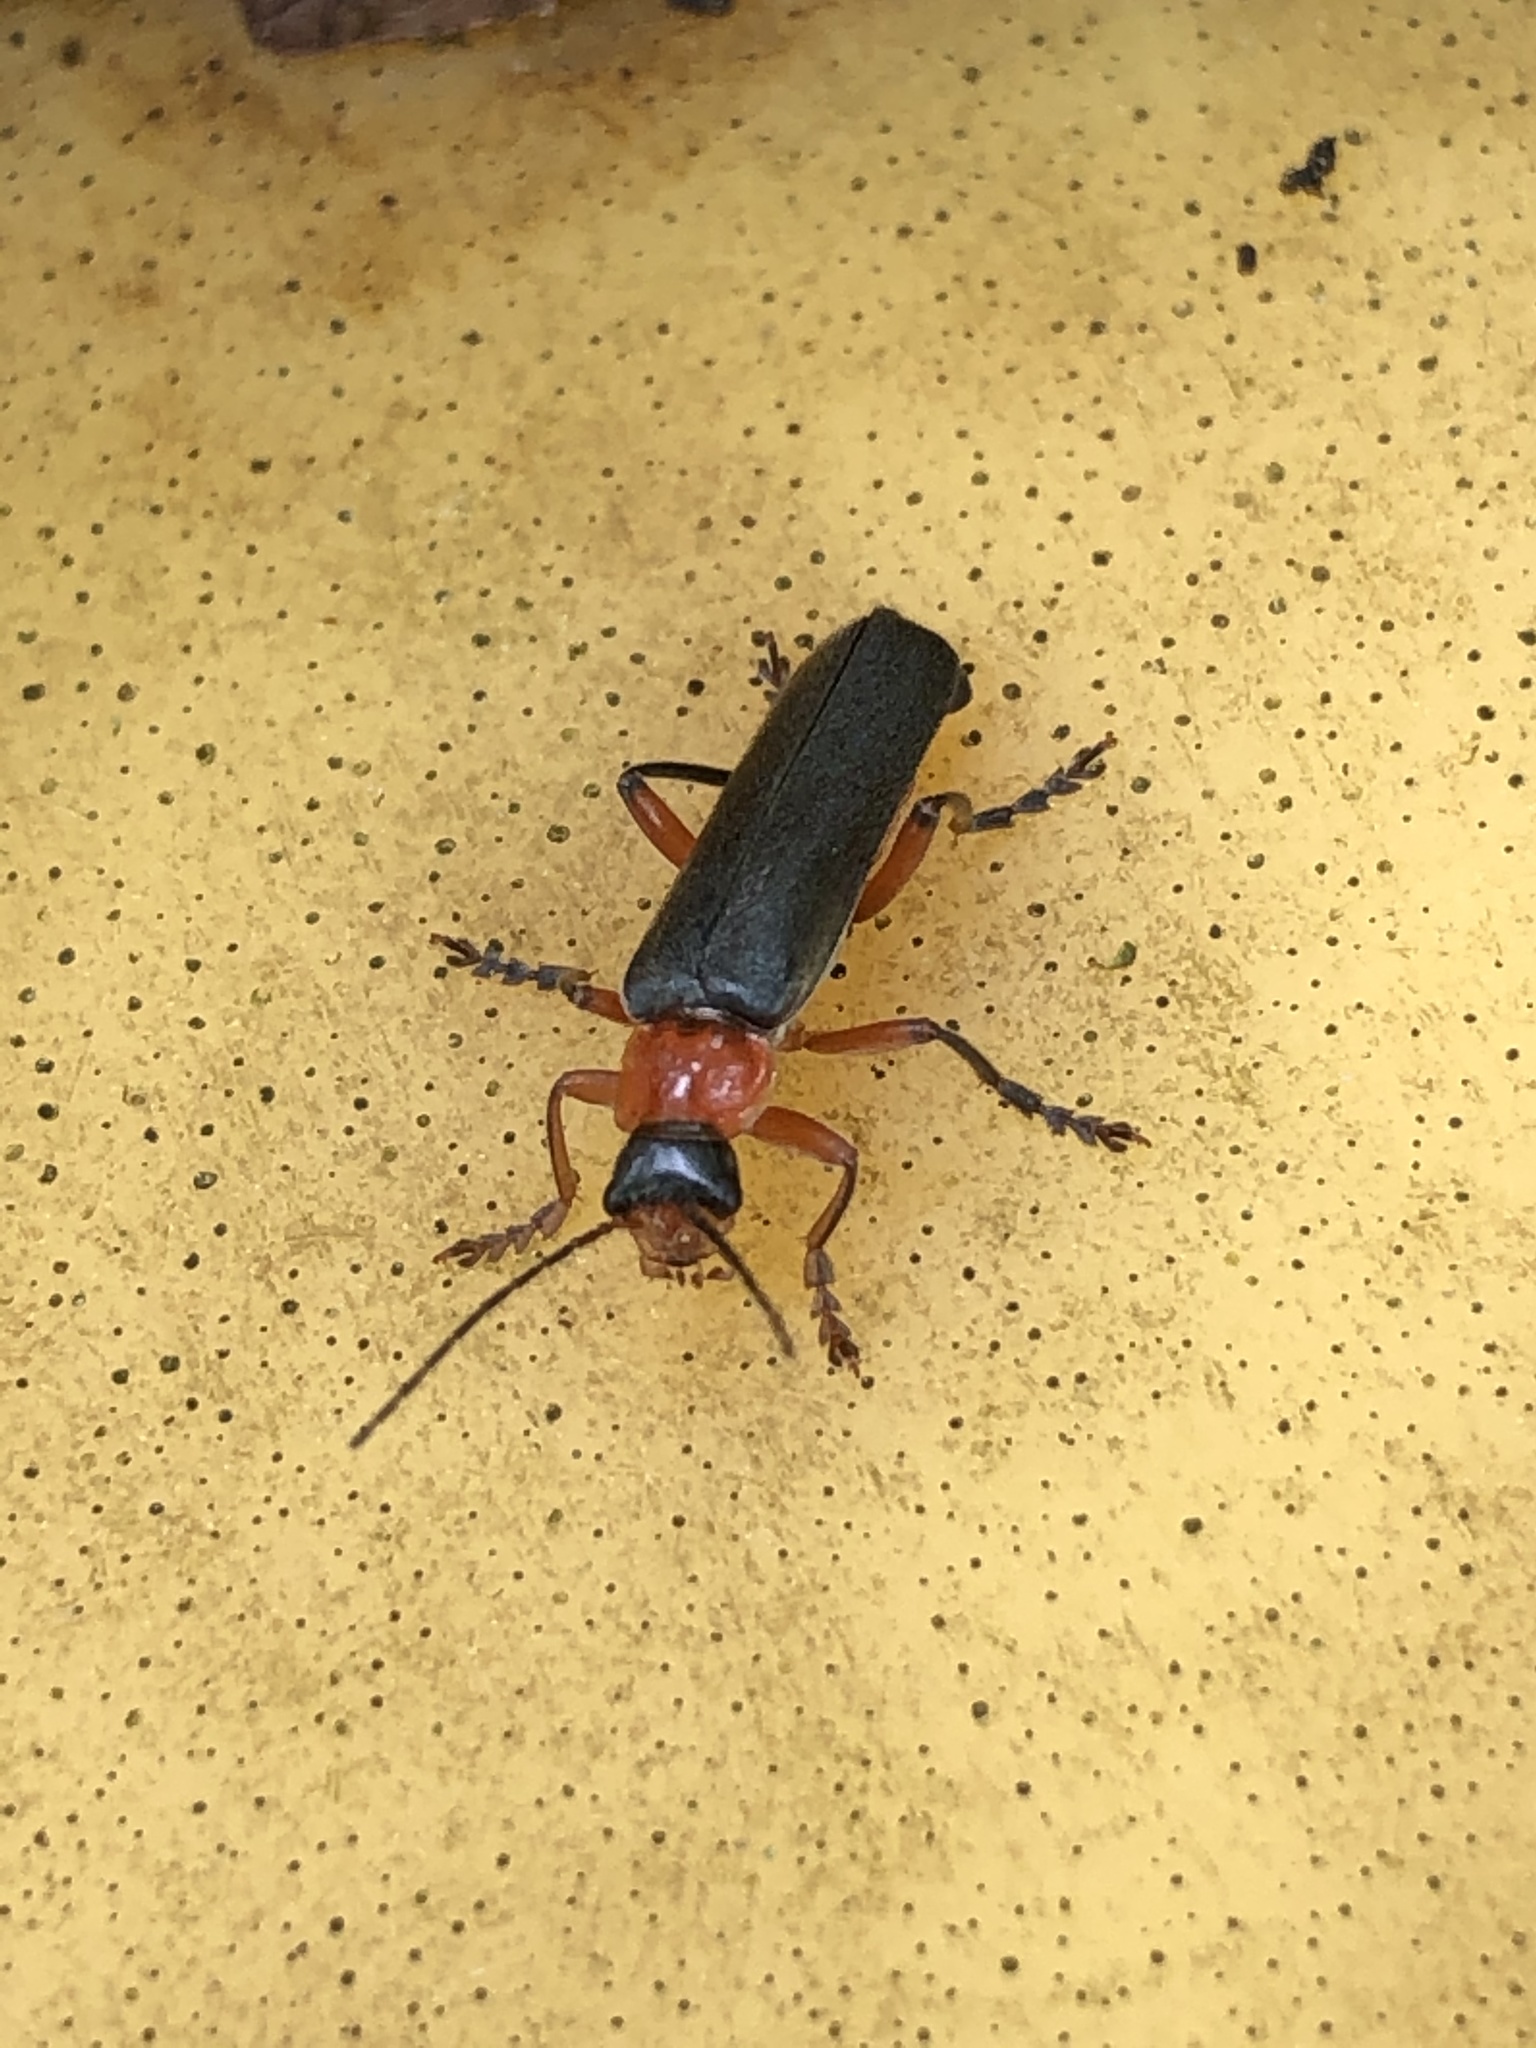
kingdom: Animalia
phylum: Arthropoda
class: Insecta
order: Coleoptera
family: Cantharidae
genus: Cantharis
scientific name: Cantharis pellucida
